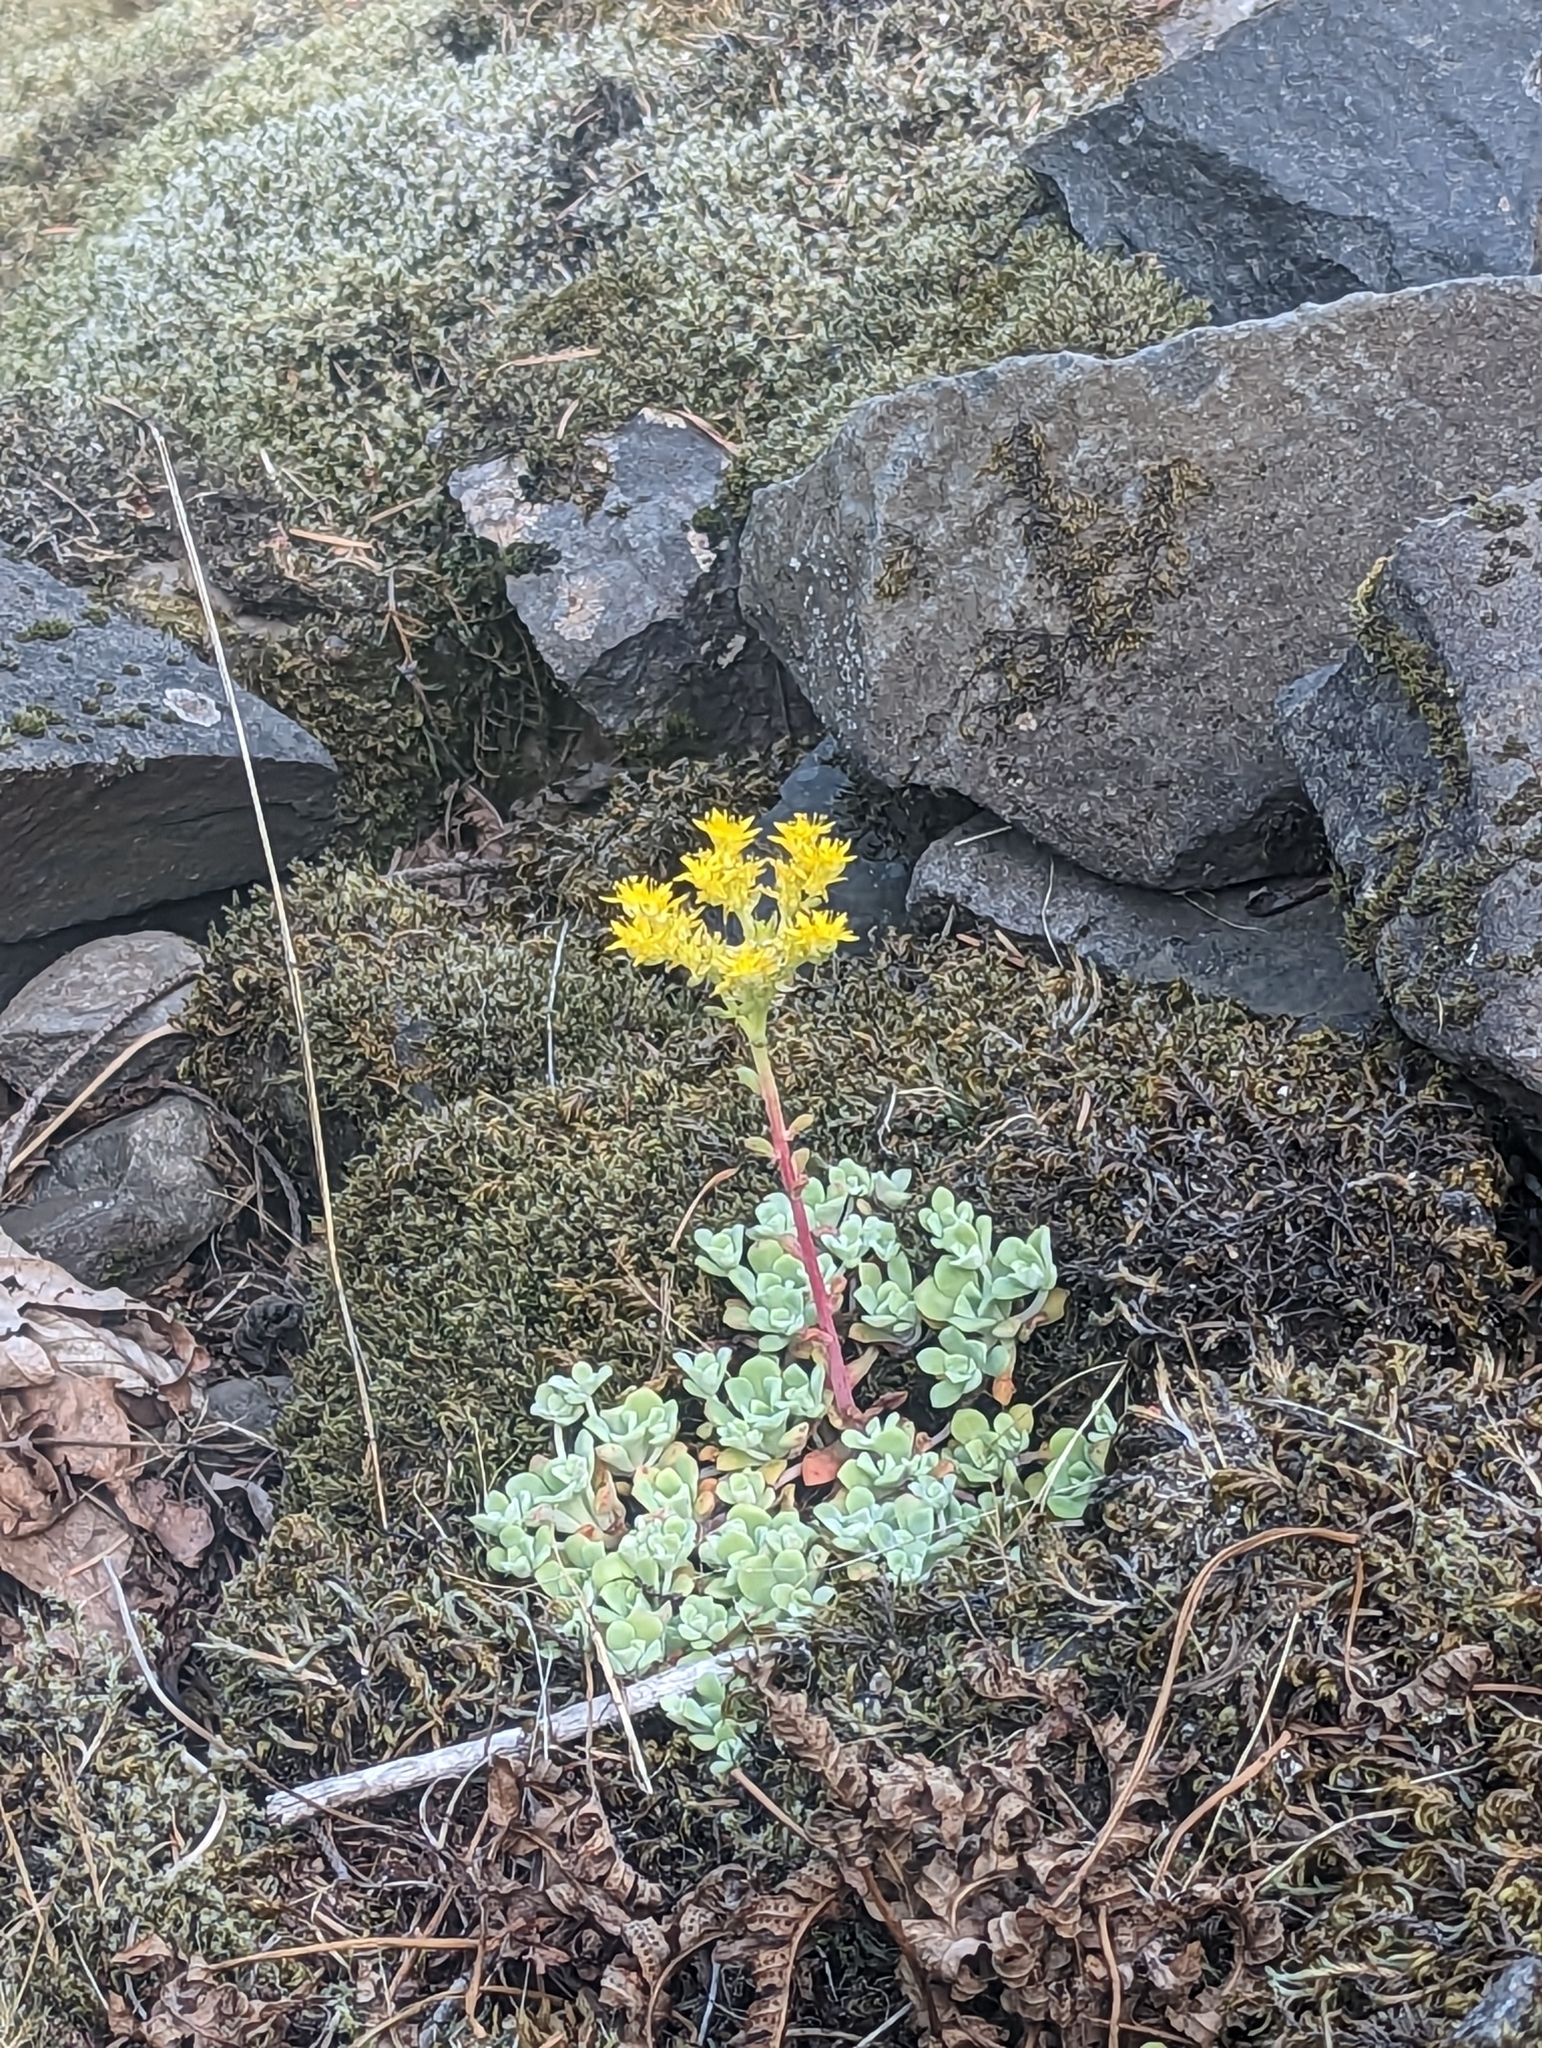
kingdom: Plantae
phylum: Tracheophyta
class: Magnoliopsida
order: Saxifragales
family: Crassulaceae
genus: Sedum
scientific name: Sedum spathulifolium
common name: Colorado stonecrop
